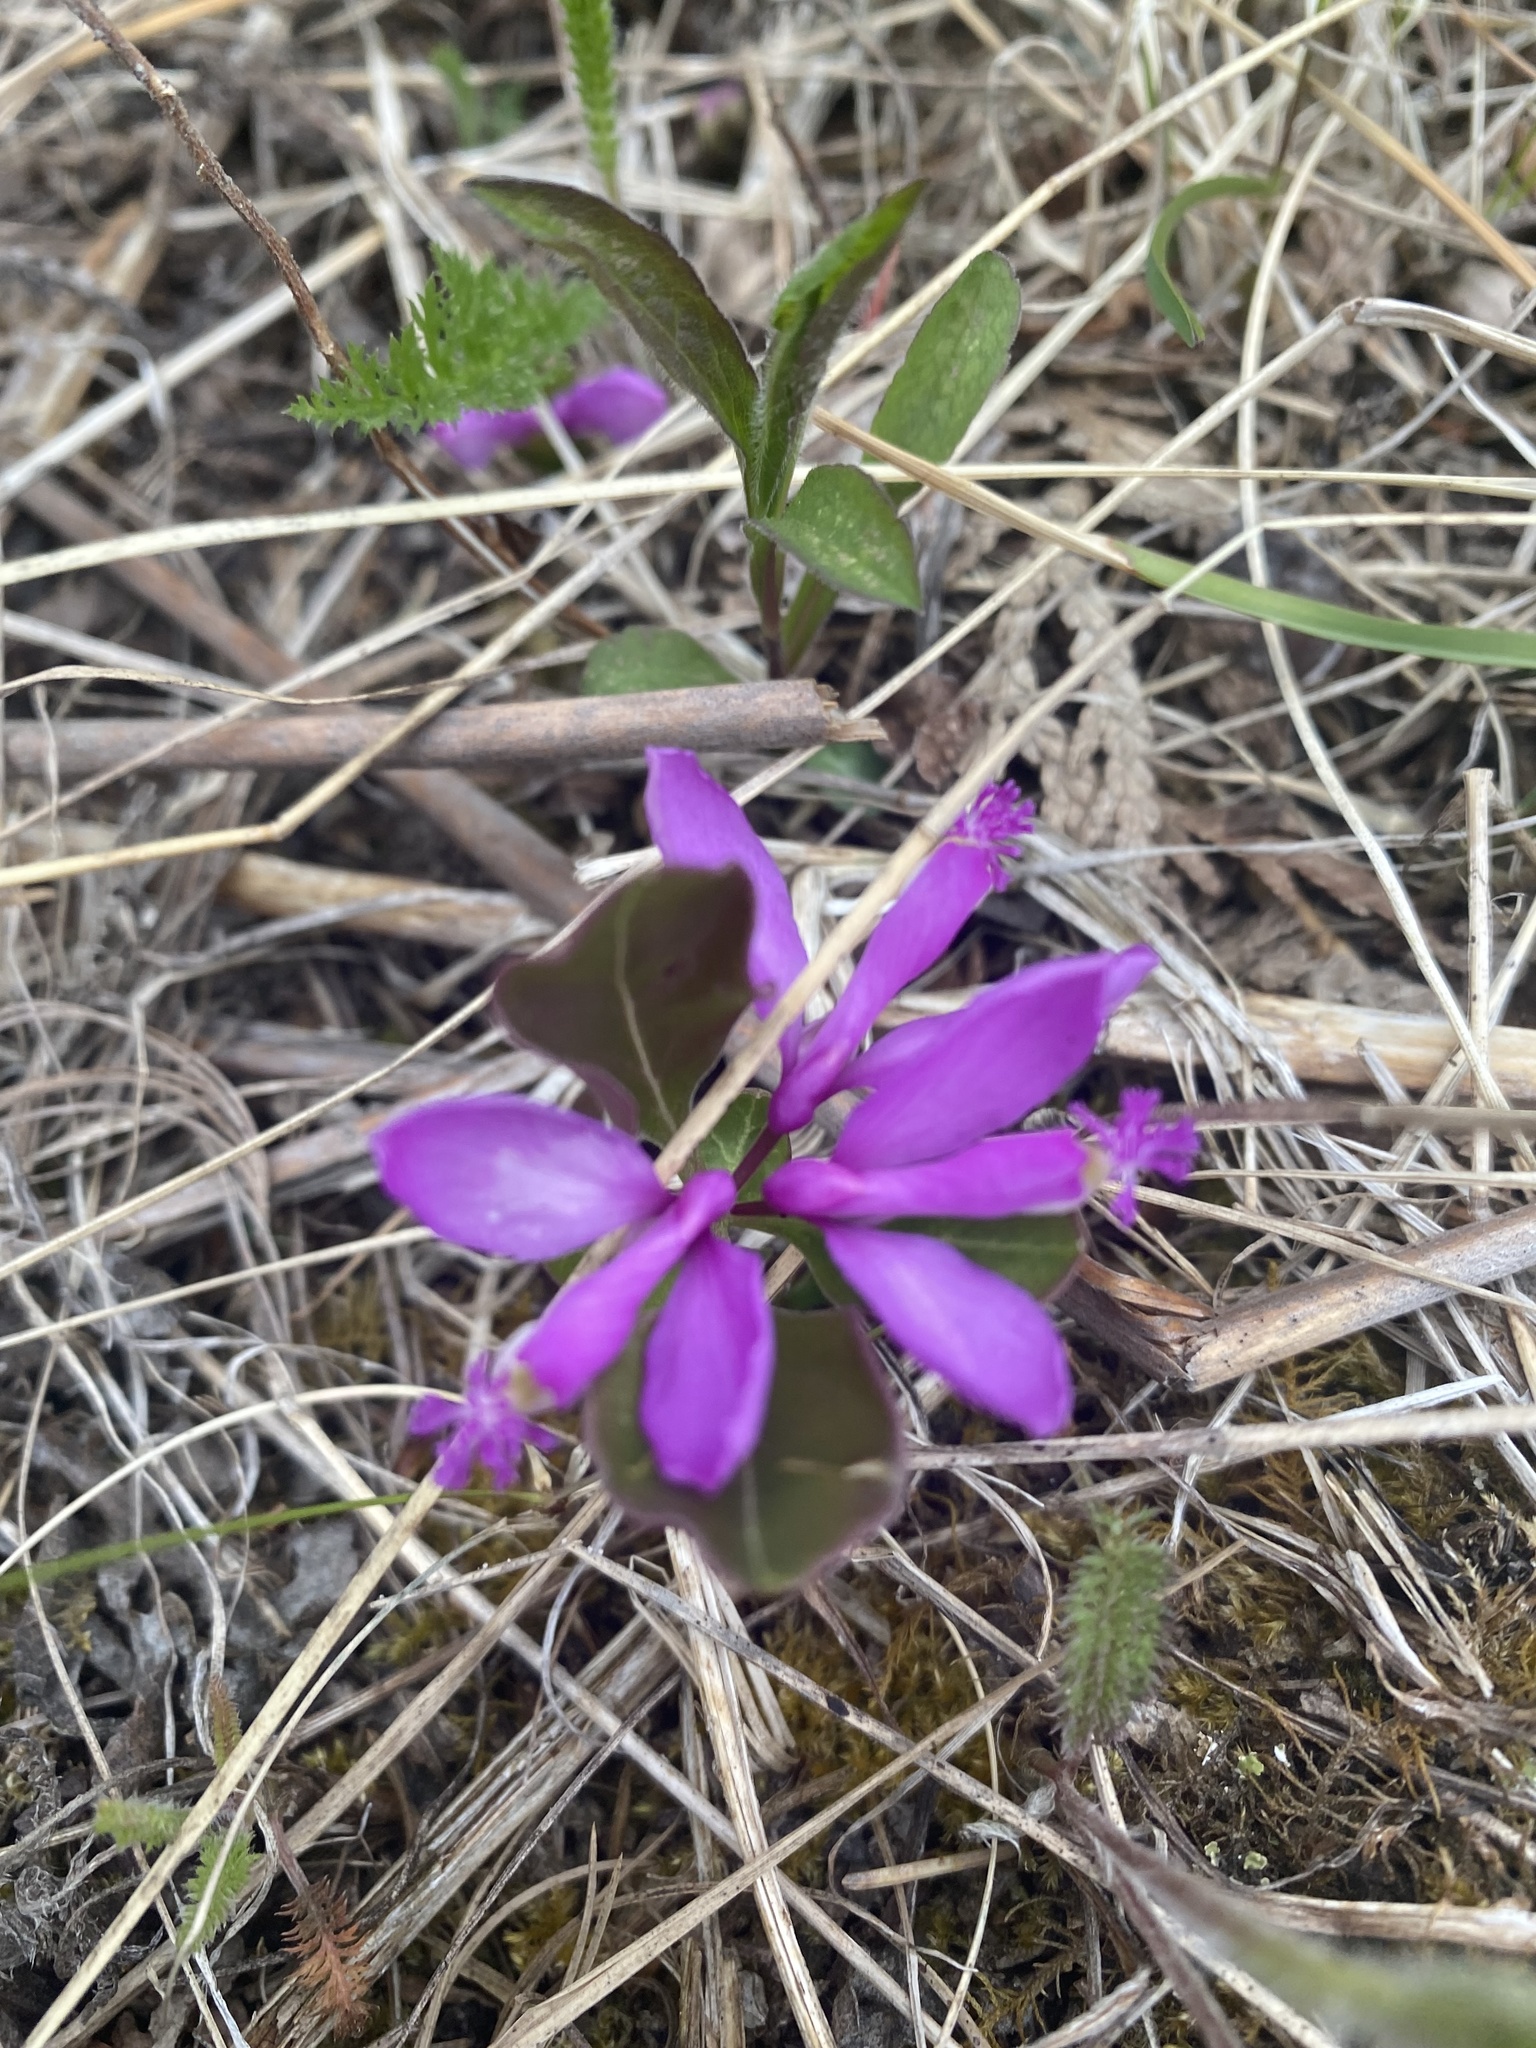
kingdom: Plantae
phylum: Tracheophyta
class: Magnoliopsida
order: Fabales
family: Polygalaceae
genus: Polygaloides
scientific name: Polygaloides paucifolia
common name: Bird-on-the-wing
